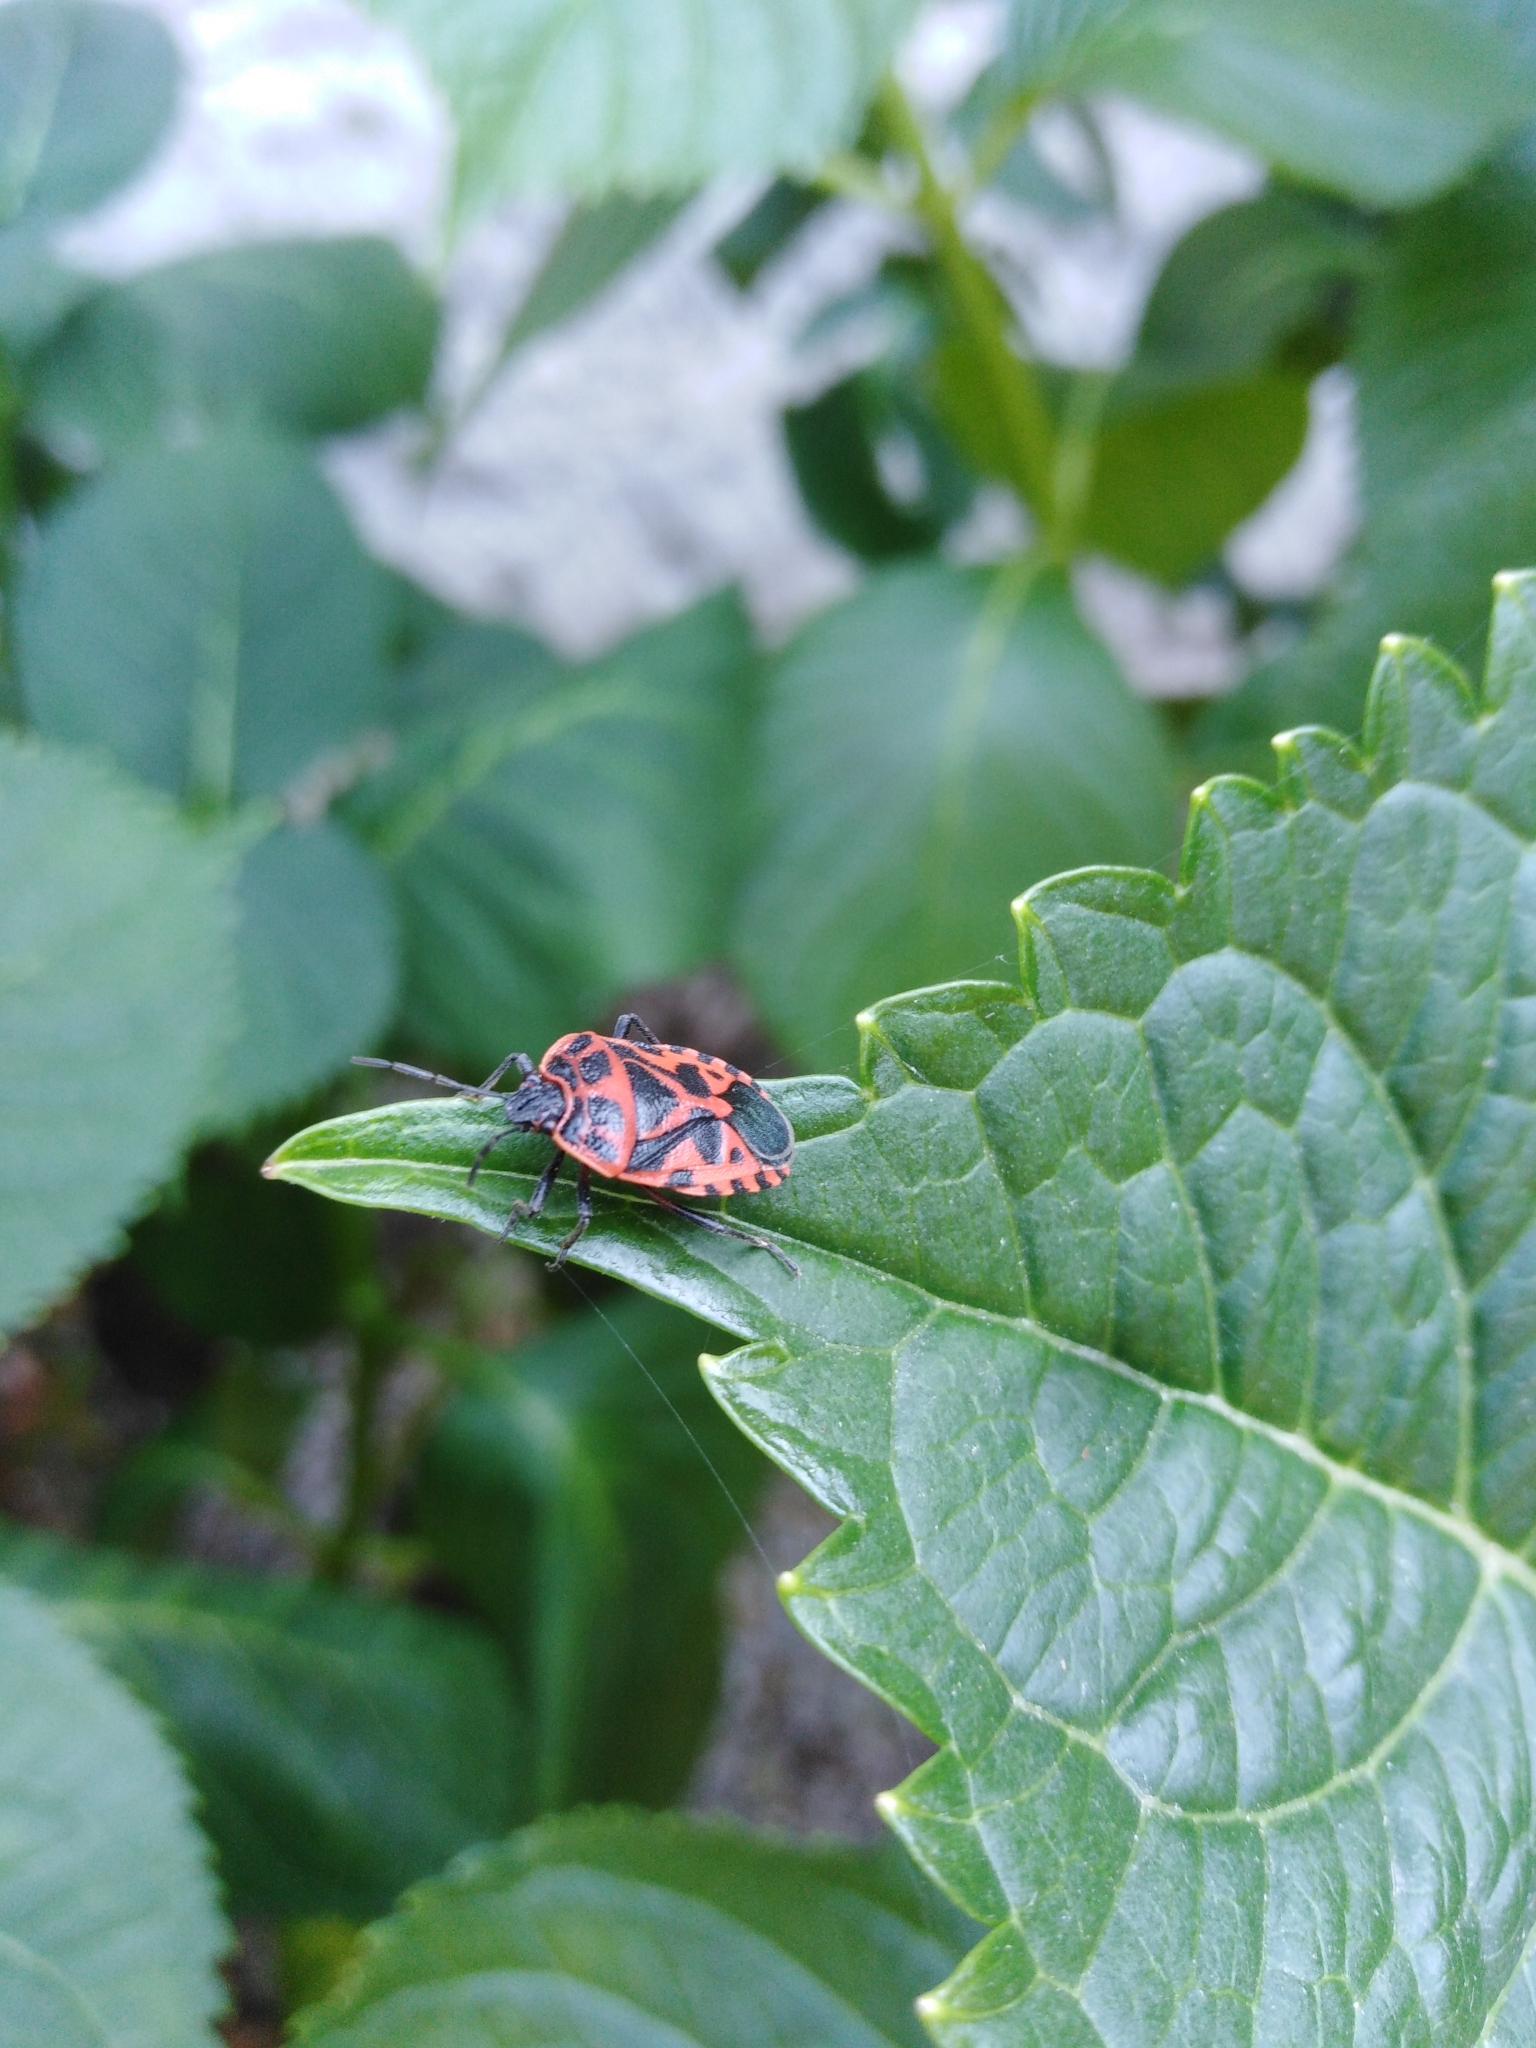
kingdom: Animalia
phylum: Arthropoda
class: Insecta
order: Hemiptera
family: Pentatomidae
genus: Eurydema
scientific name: Eurydema ventralis
